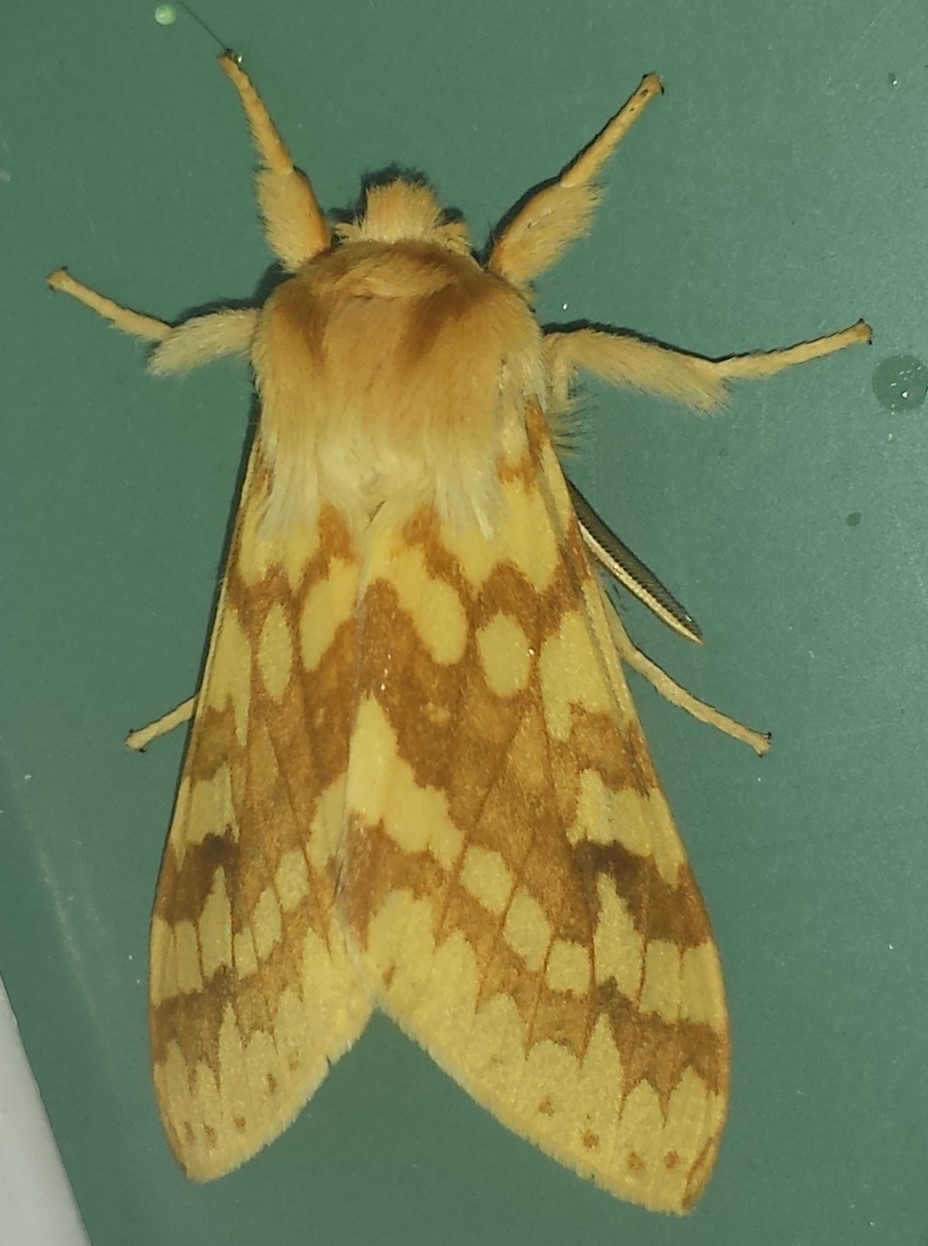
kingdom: Animalia
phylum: Arthropoda
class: Insecta
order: Lepidoptera
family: Erebidae
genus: Lophocampa
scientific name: Lophocampa maculata
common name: Spotted tussock moth
